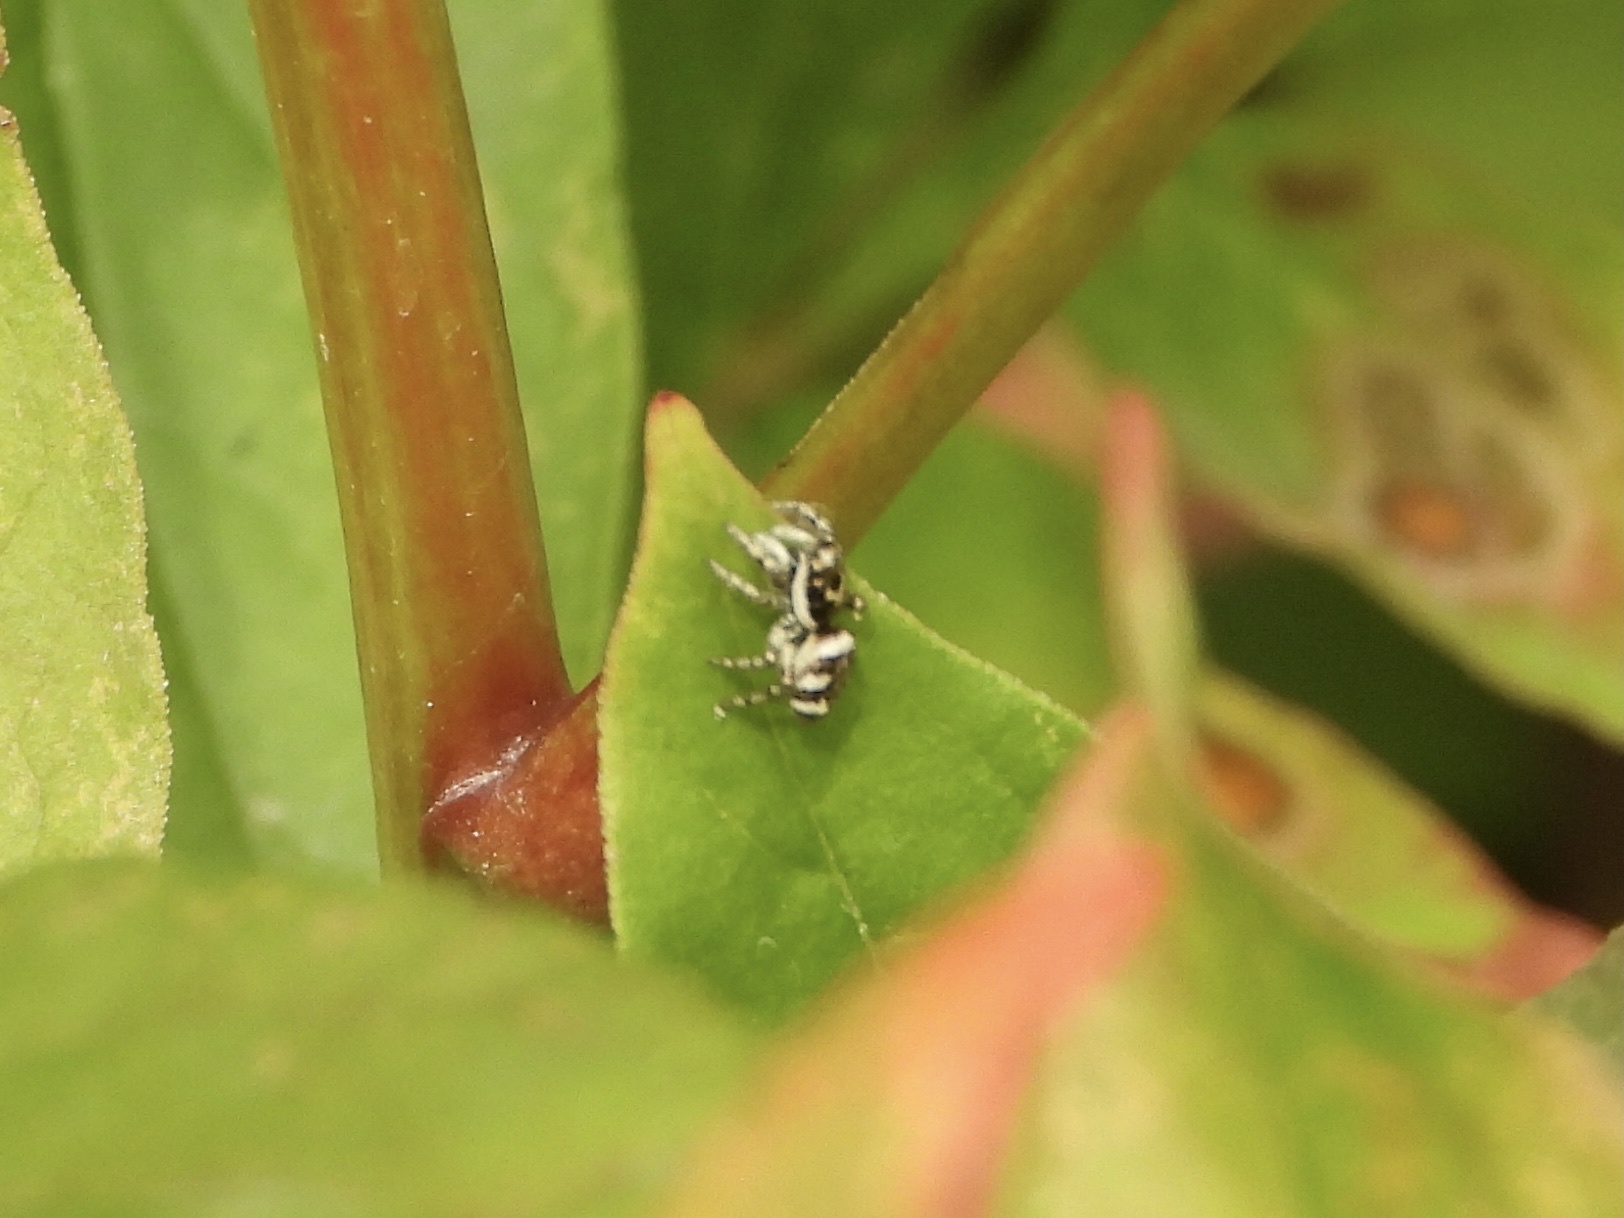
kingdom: Animalia
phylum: Arthropoda
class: Arachnida
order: Araneae
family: Salticidae
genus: Salticus
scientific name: Salticus scenicus
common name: Zebra jumper
